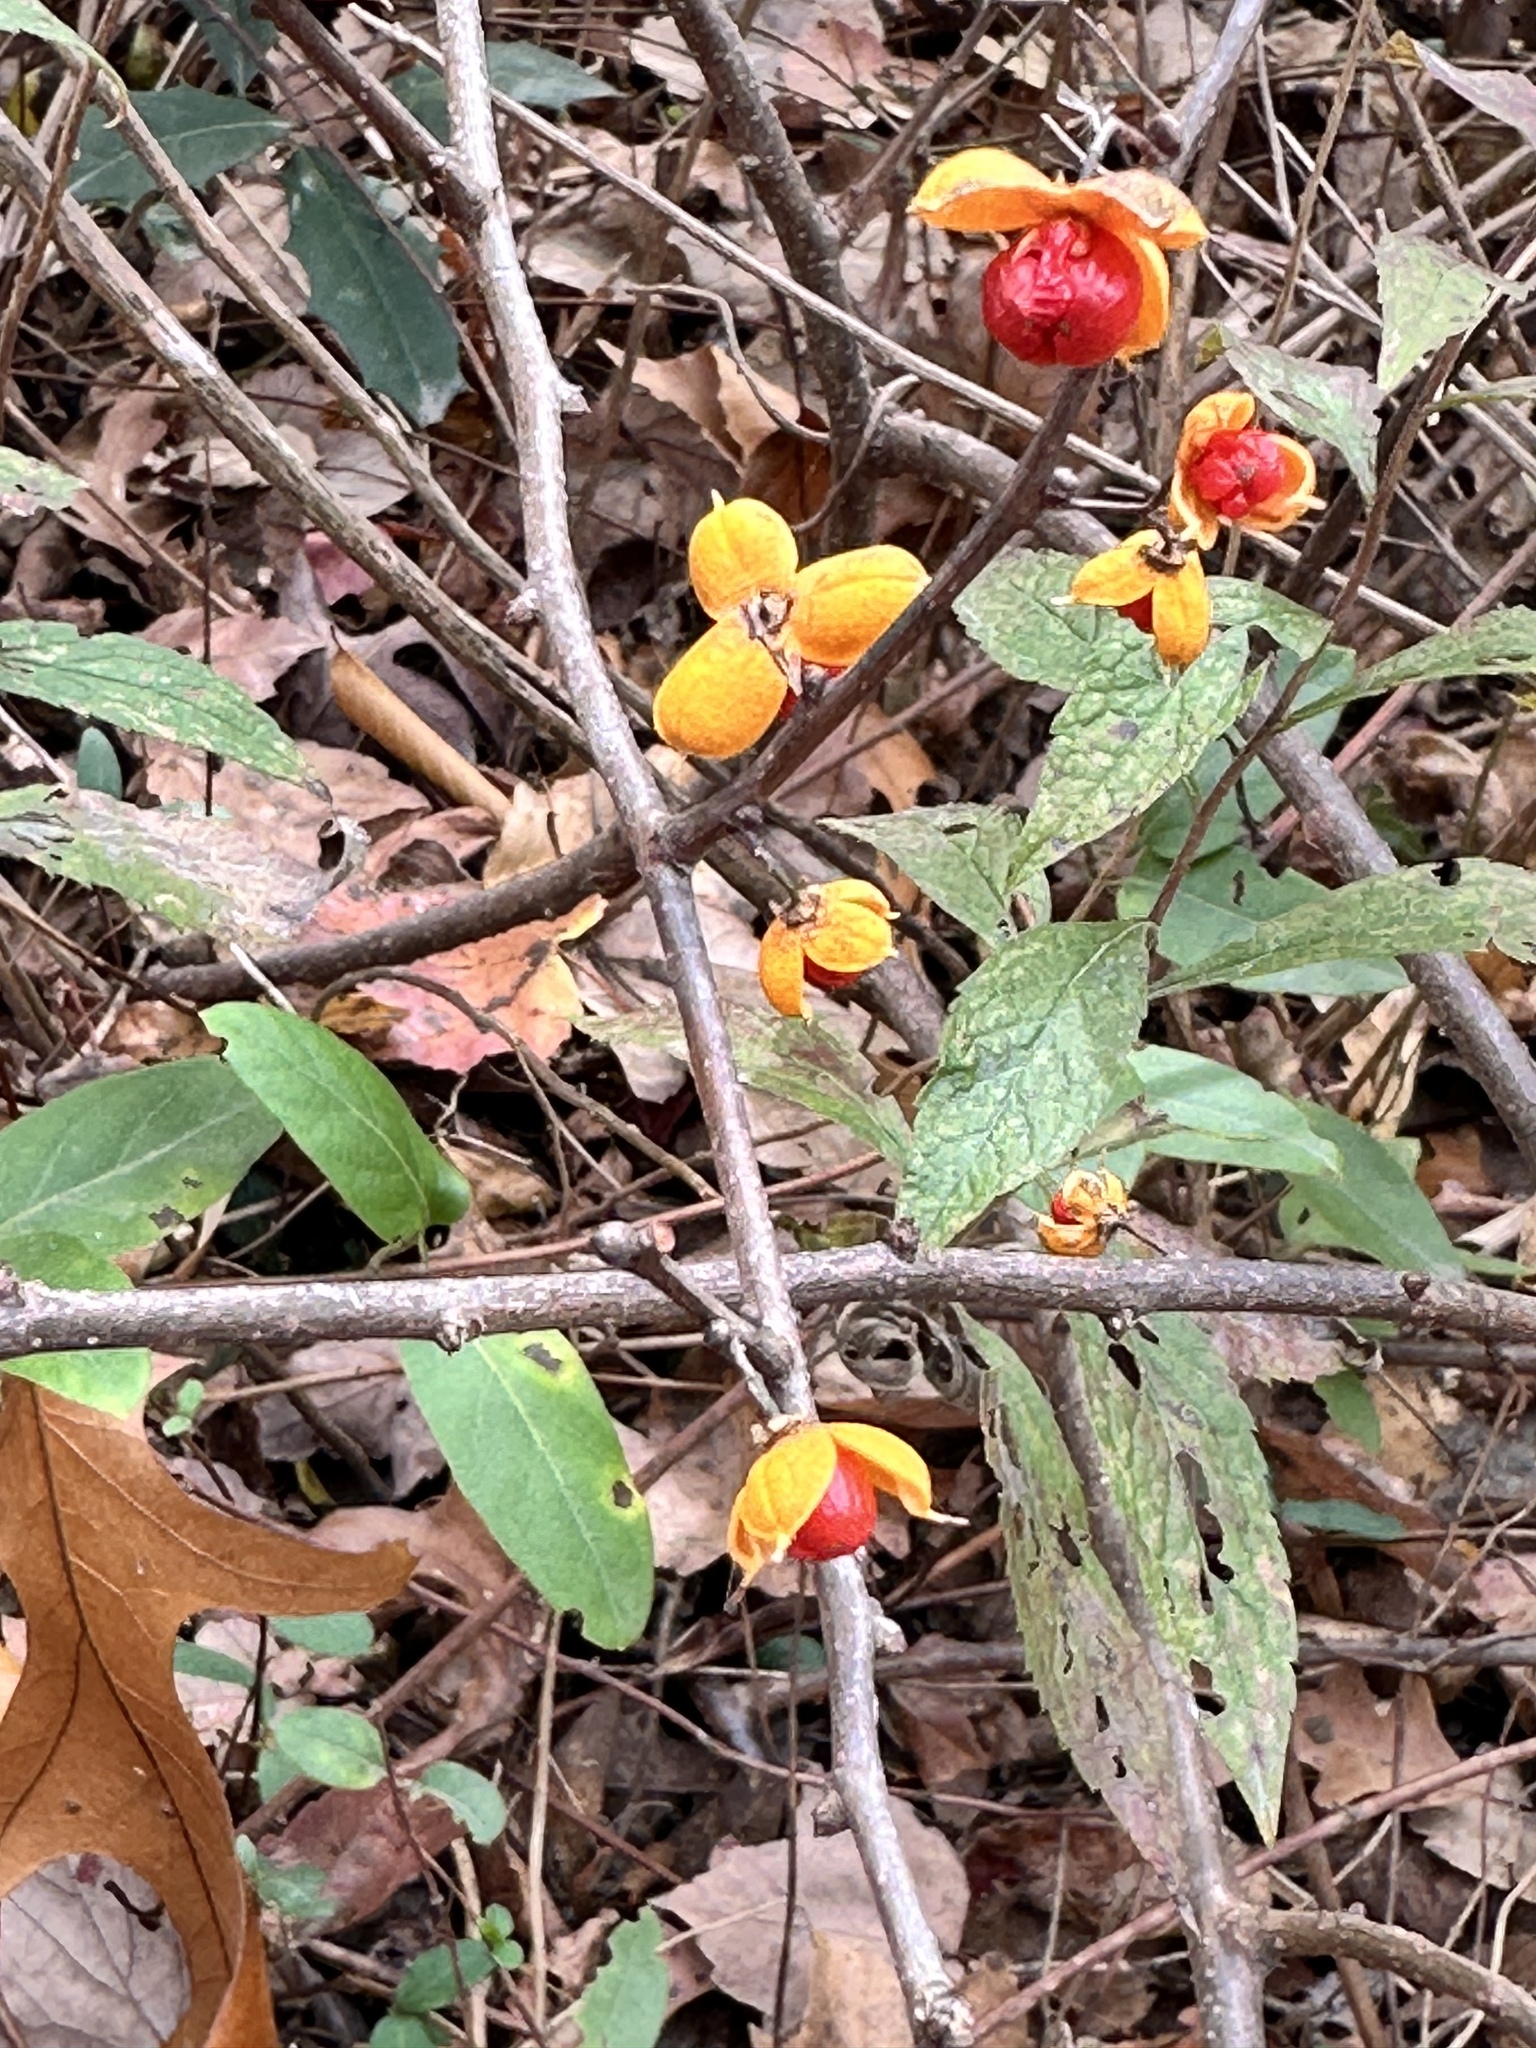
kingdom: Plantae
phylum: Tracheophyta
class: Magnoliopsida
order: Celastrales
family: Celastraceae
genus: Celastrus
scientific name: Celastrus orbiculatus
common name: Oriental bittersweet
